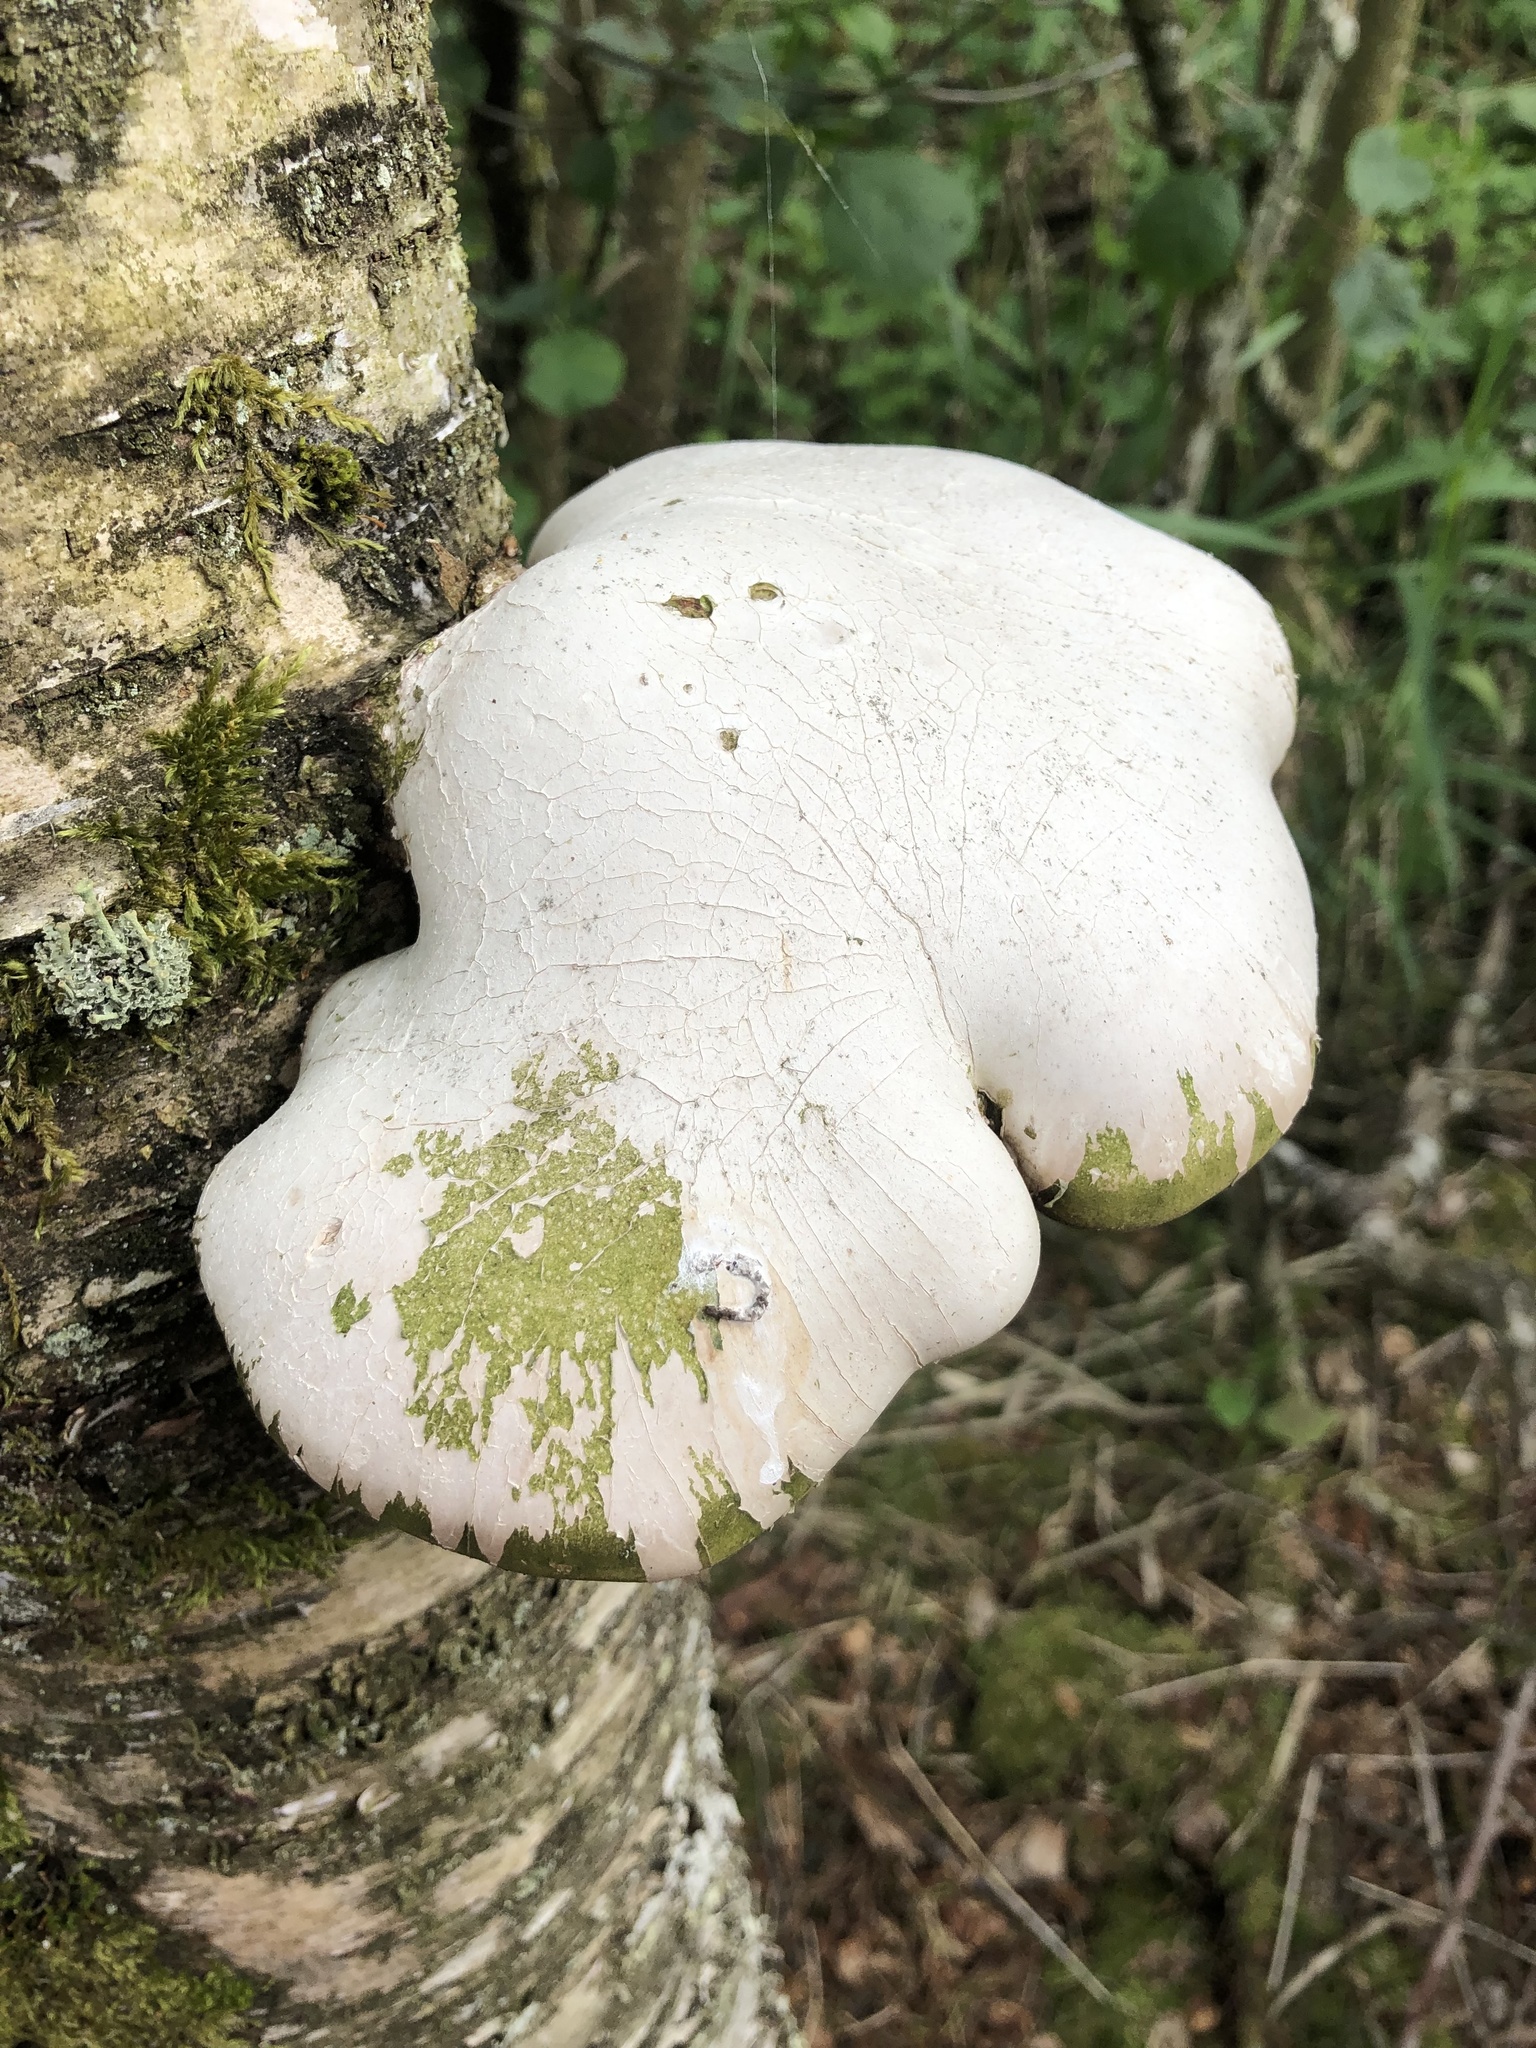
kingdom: Fungi
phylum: Basidiomycota
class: Agaricomycetes
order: Polyporales
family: Fomitopsidaceae
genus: Fomitopsis
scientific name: Fomitopsis betulina
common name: Birch polypore
